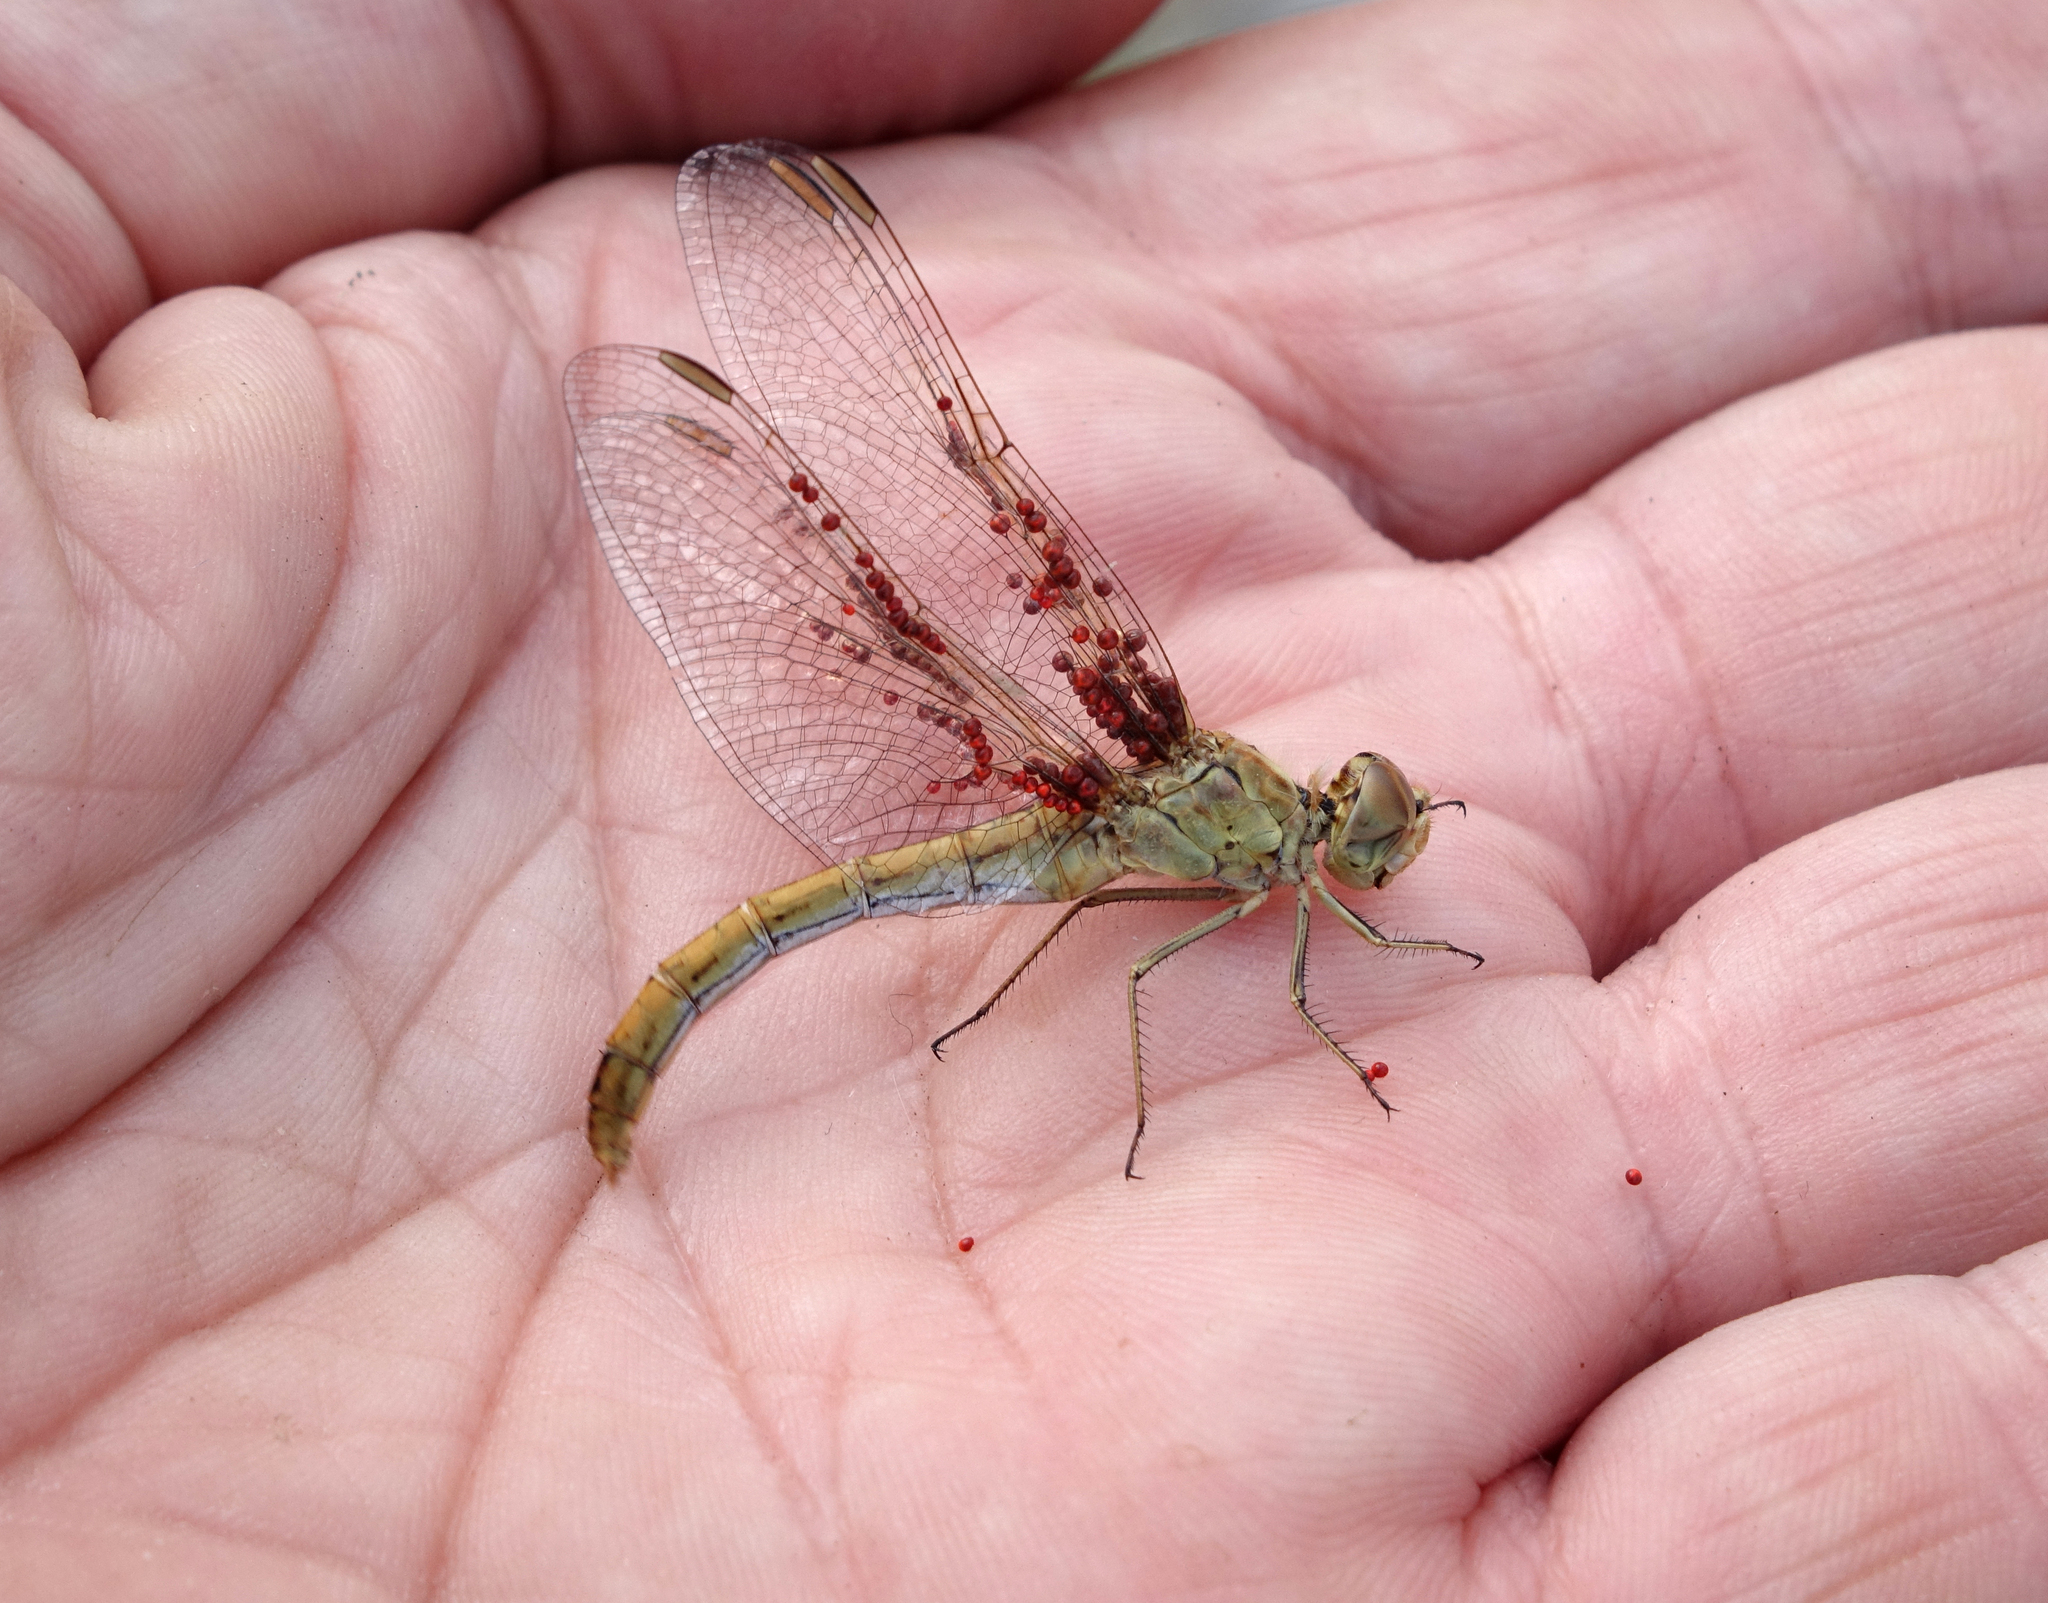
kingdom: Animalia
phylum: Arthropoda
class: Insecta
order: Odonata
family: Libellulidae
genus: Sympetrum
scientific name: Sympetrum meridionale
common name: Southern darter
